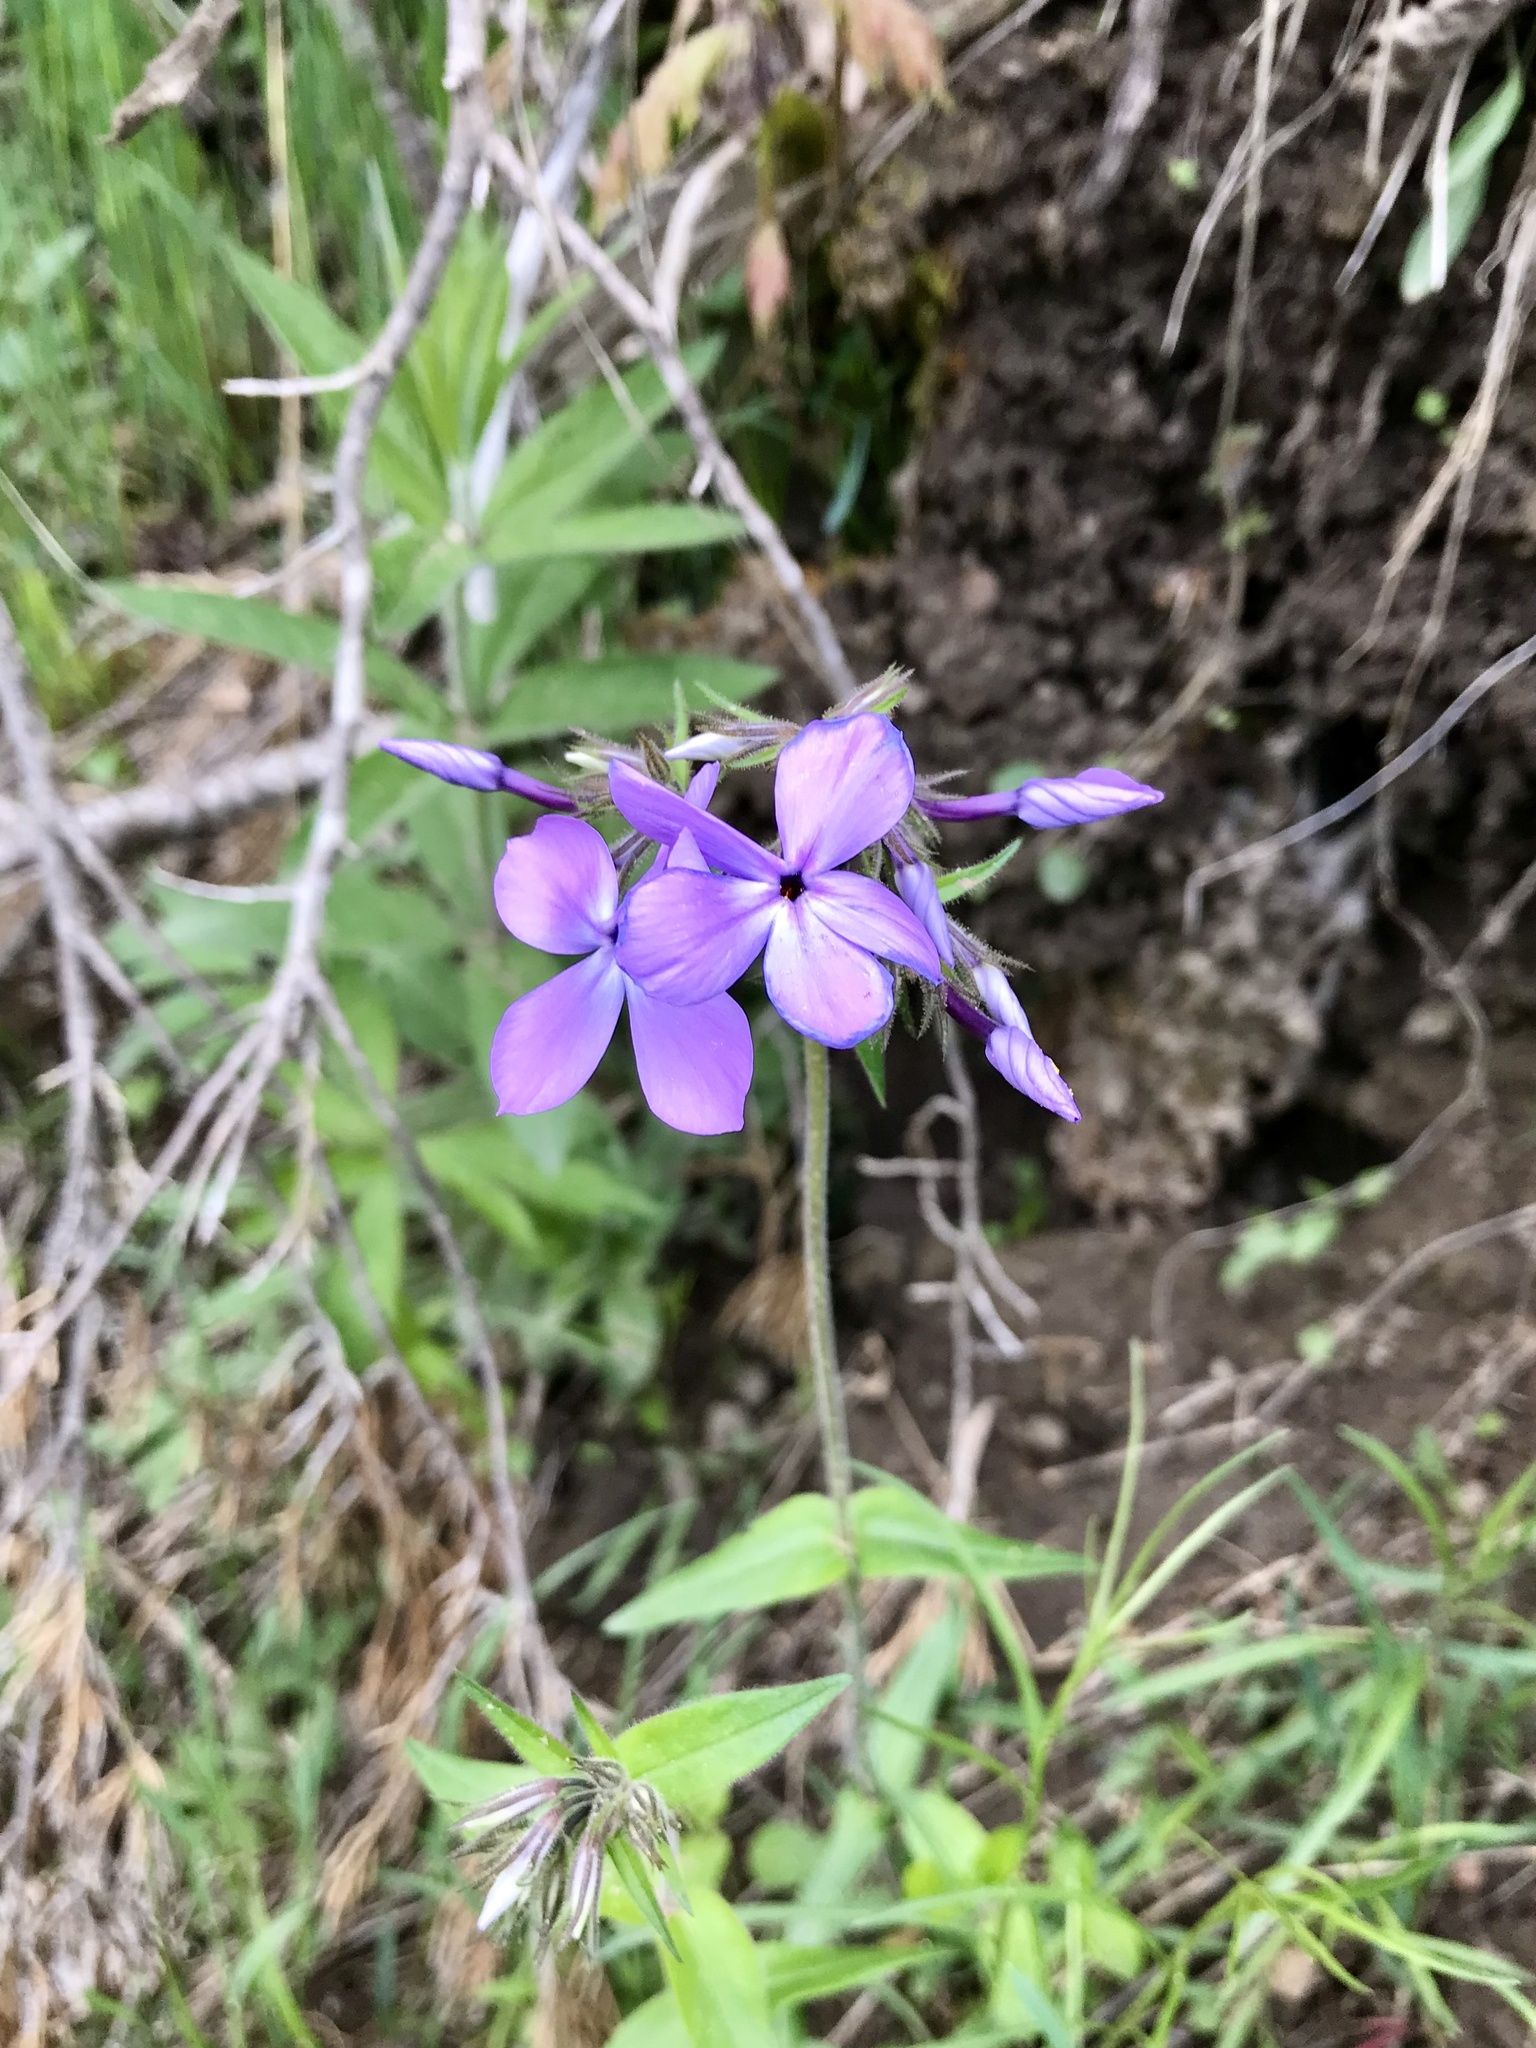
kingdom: Plantae
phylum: Tracheophyta
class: Magnoliopsida
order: Ericales
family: Polemoniaceae
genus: Phlox
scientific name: Phlox divaricata
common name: Blue phlox
